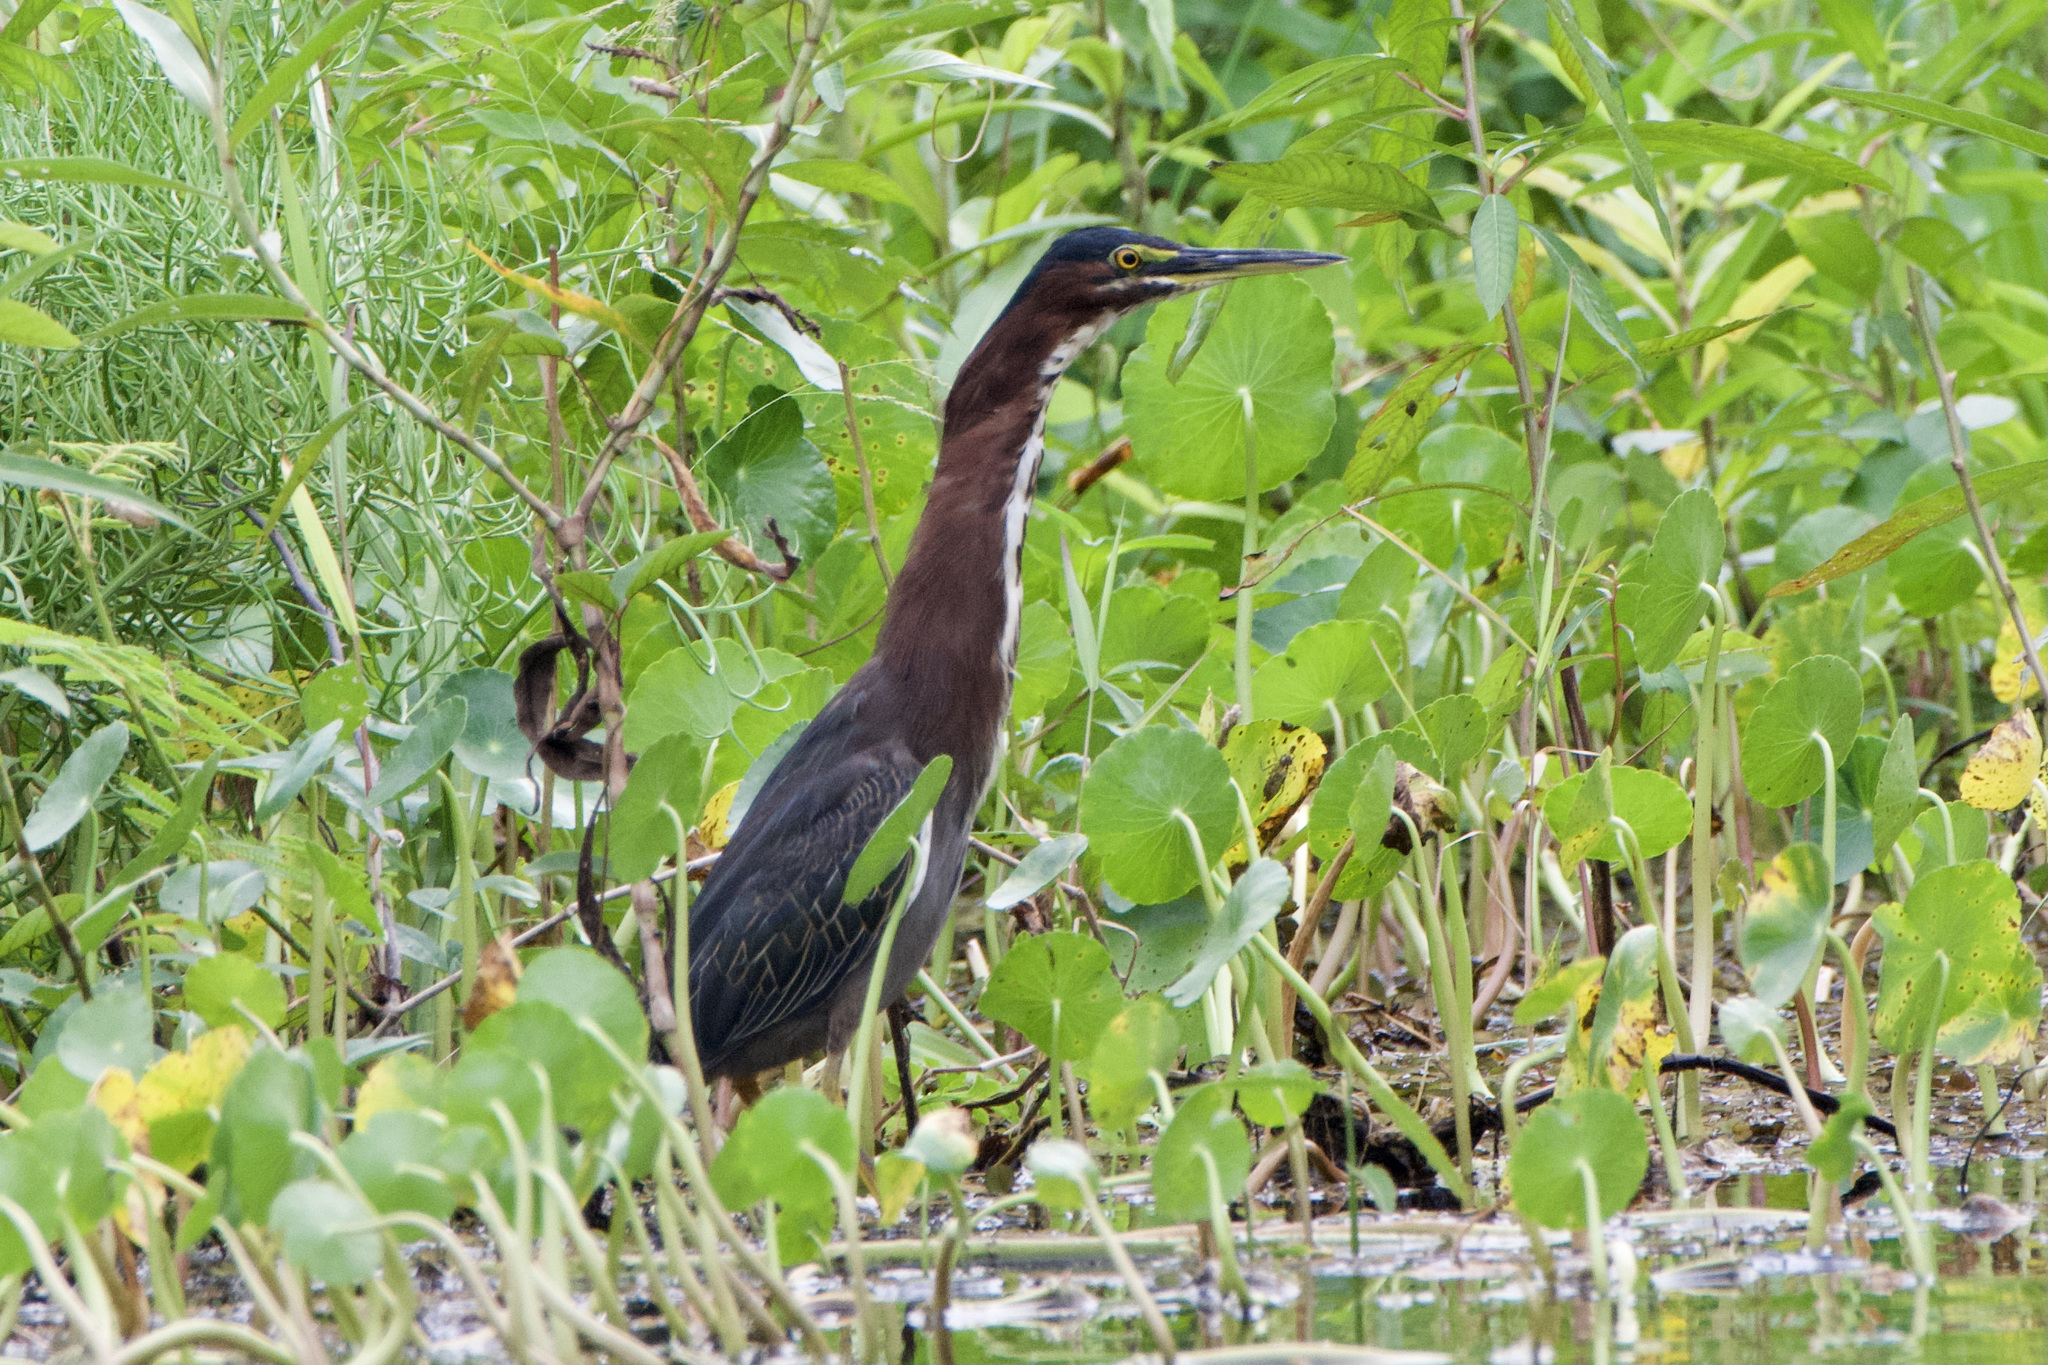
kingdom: Animalia
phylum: Chordata
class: Aves
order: Pelecaniformes
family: Ardeidae
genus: Butorides
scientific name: Butorides virescens
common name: Green heron
